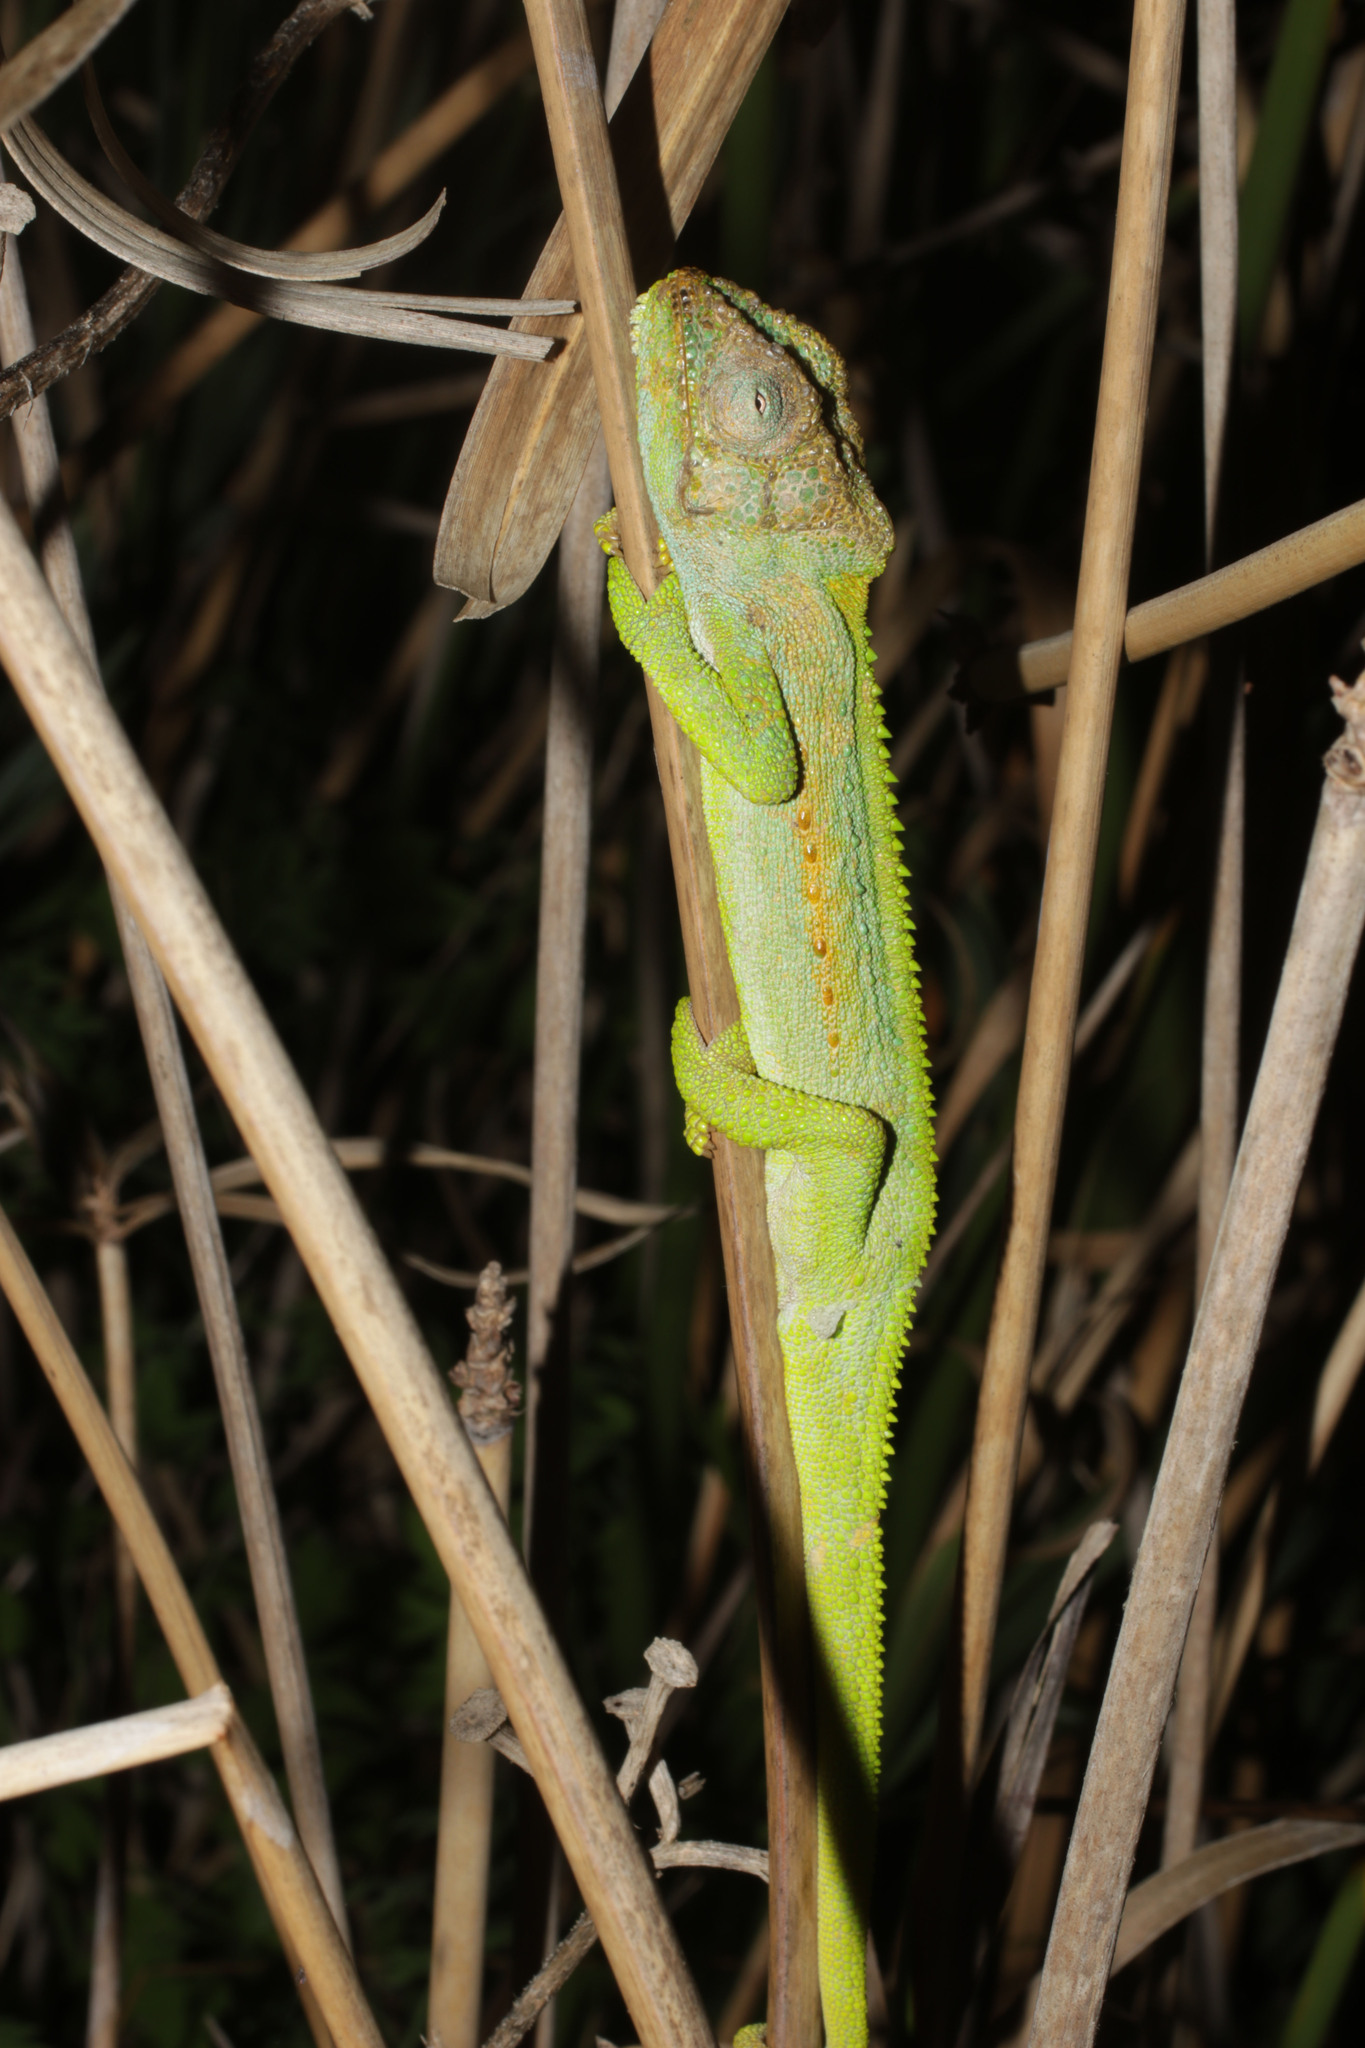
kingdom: Animalia
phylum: Chordata
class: Squamata
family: Chamaeleonidae
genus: Bradypodion
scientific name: Bradypodion pumilum
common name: Cape dwarf chameleon
